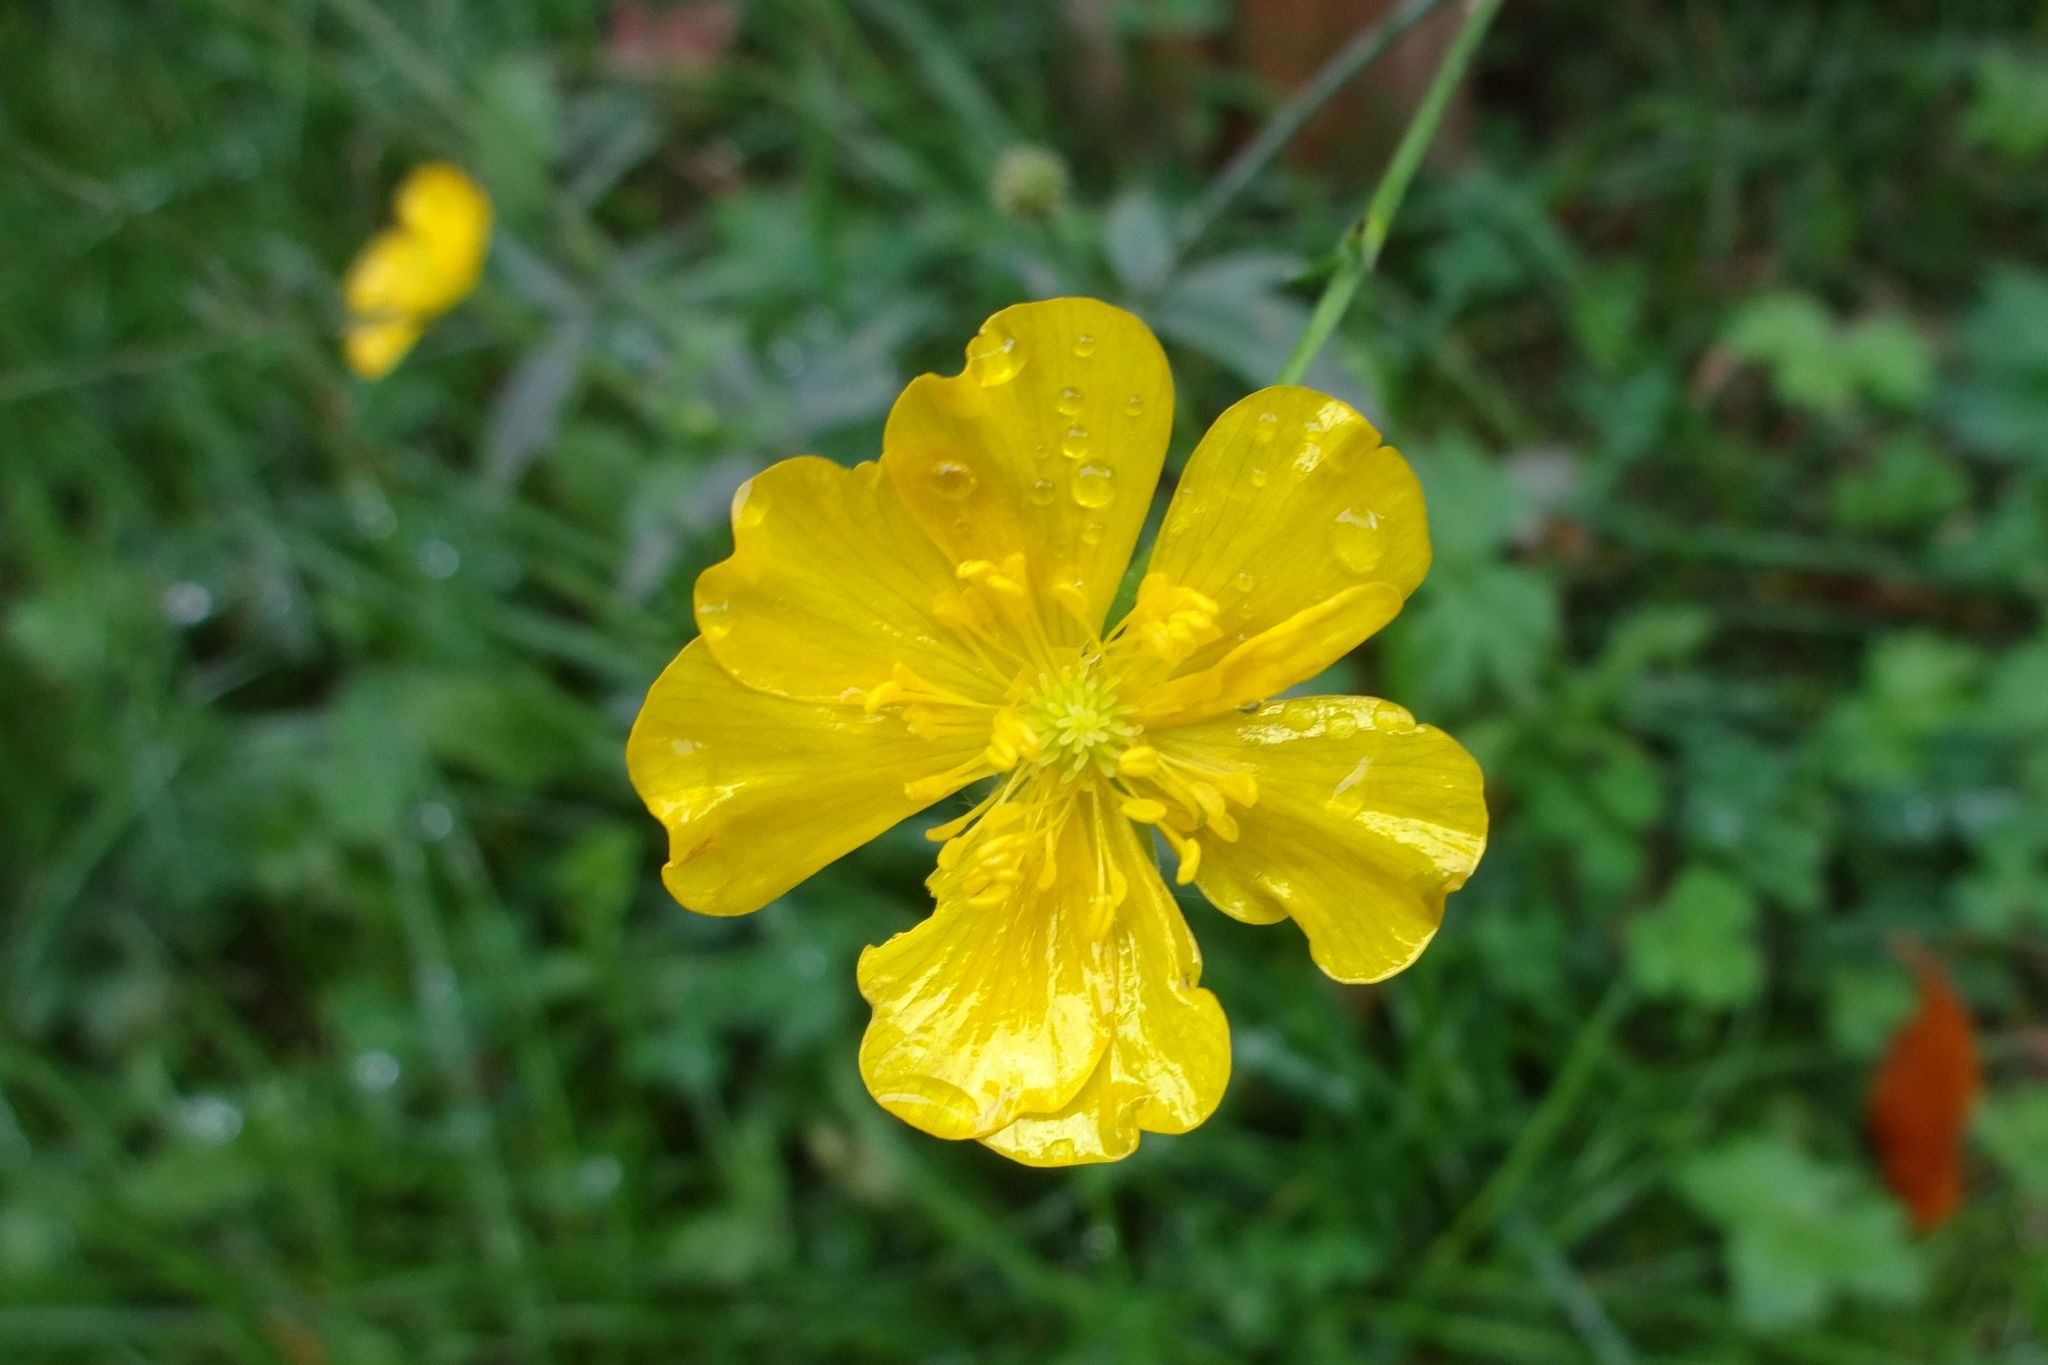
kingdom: Plantae
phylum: Tracheophyta
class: Magnoliopsida
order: Ranunculales
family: Ranunculaceae
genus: Ranunculus
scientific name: Ranunculus acris
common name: Meadow buttercup
